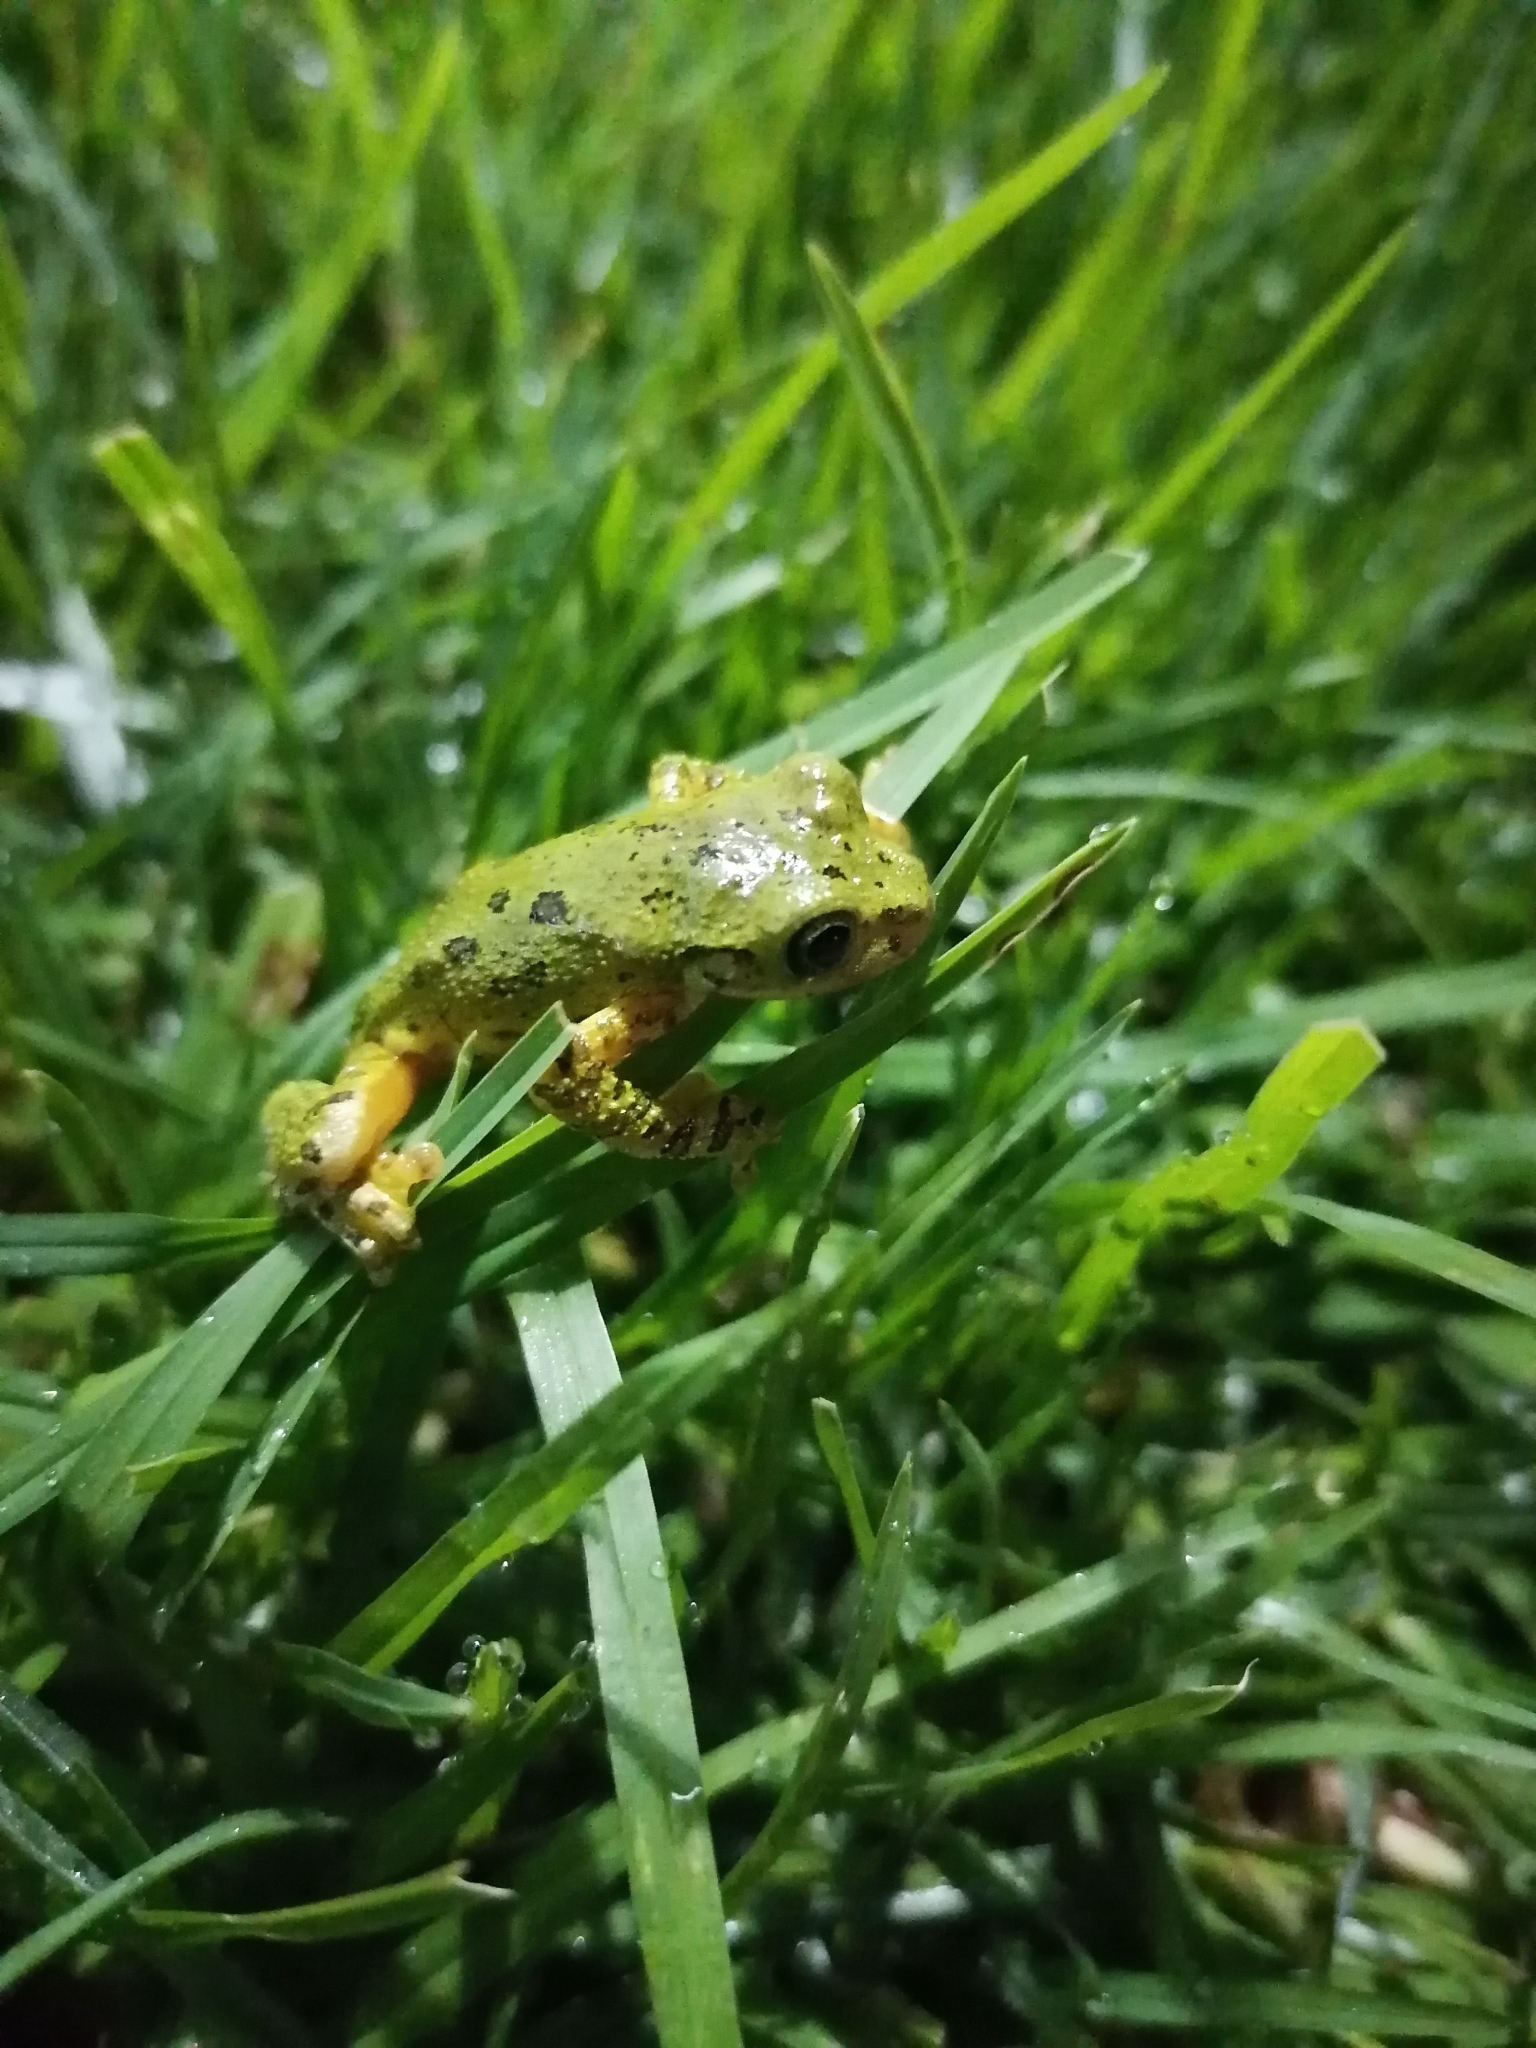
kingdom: Animalia
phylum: Chordata
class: Amphibia
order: Anura
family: Hylidae
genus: Charadrahyla
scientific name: Charadrahyla taeniopus
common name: Porthole treefrog
